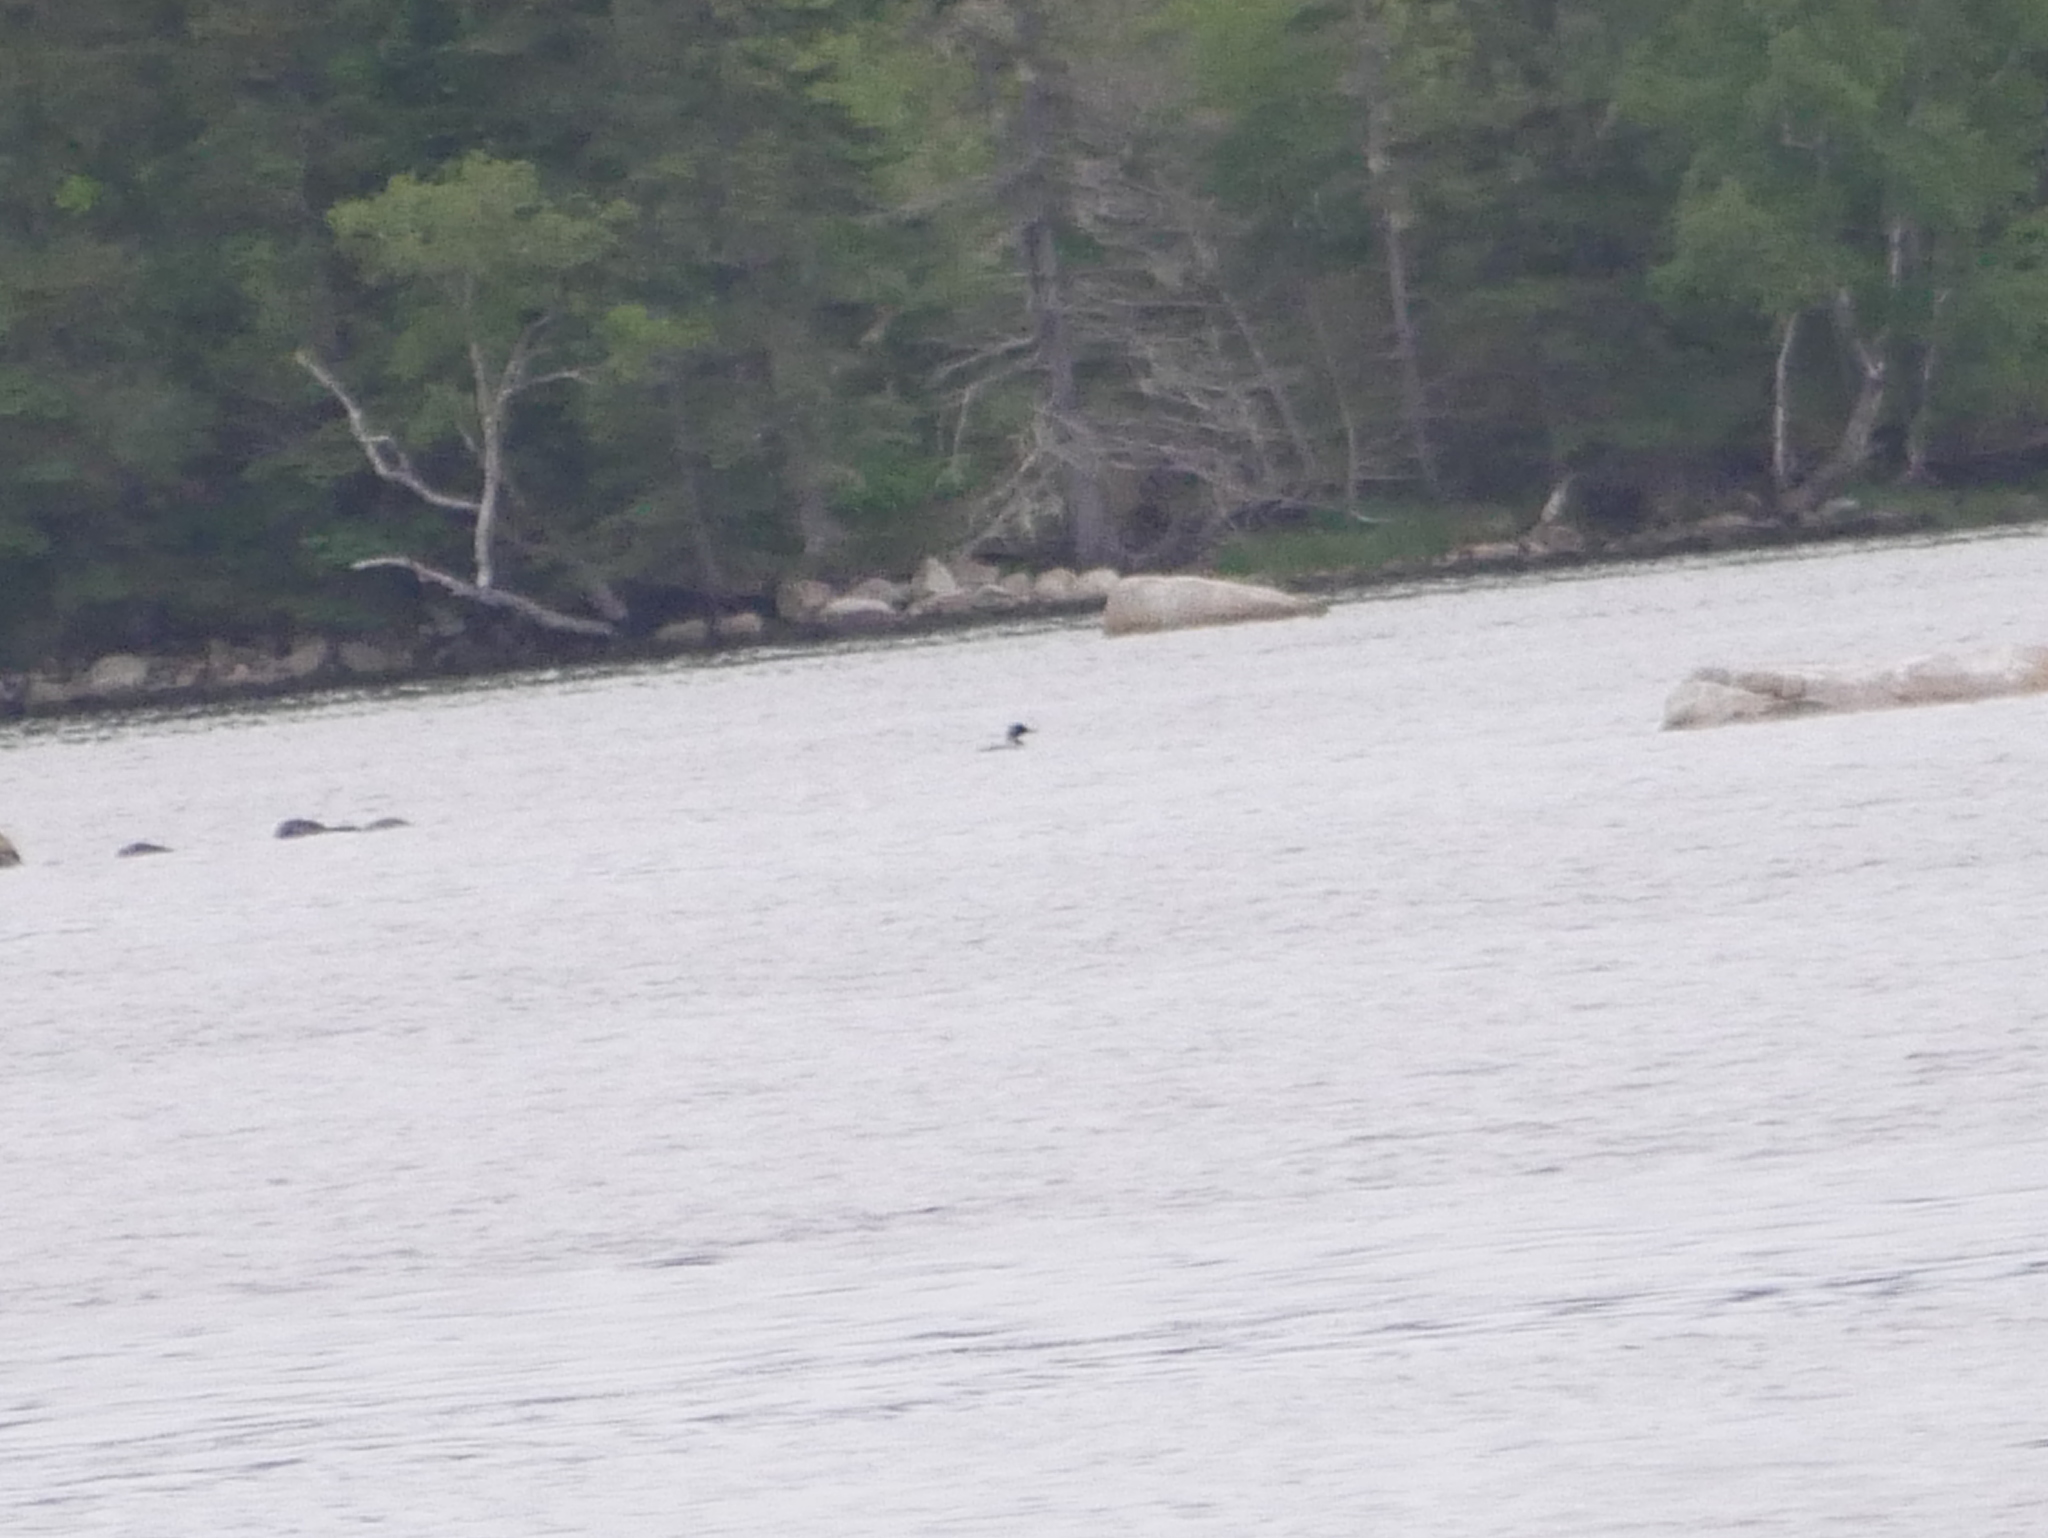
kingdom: Animalia
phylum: Chordata
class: Aves
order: Gaviiformes
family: Gaviidae
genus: Gavia
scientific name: Gavia immer
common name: Common loon
